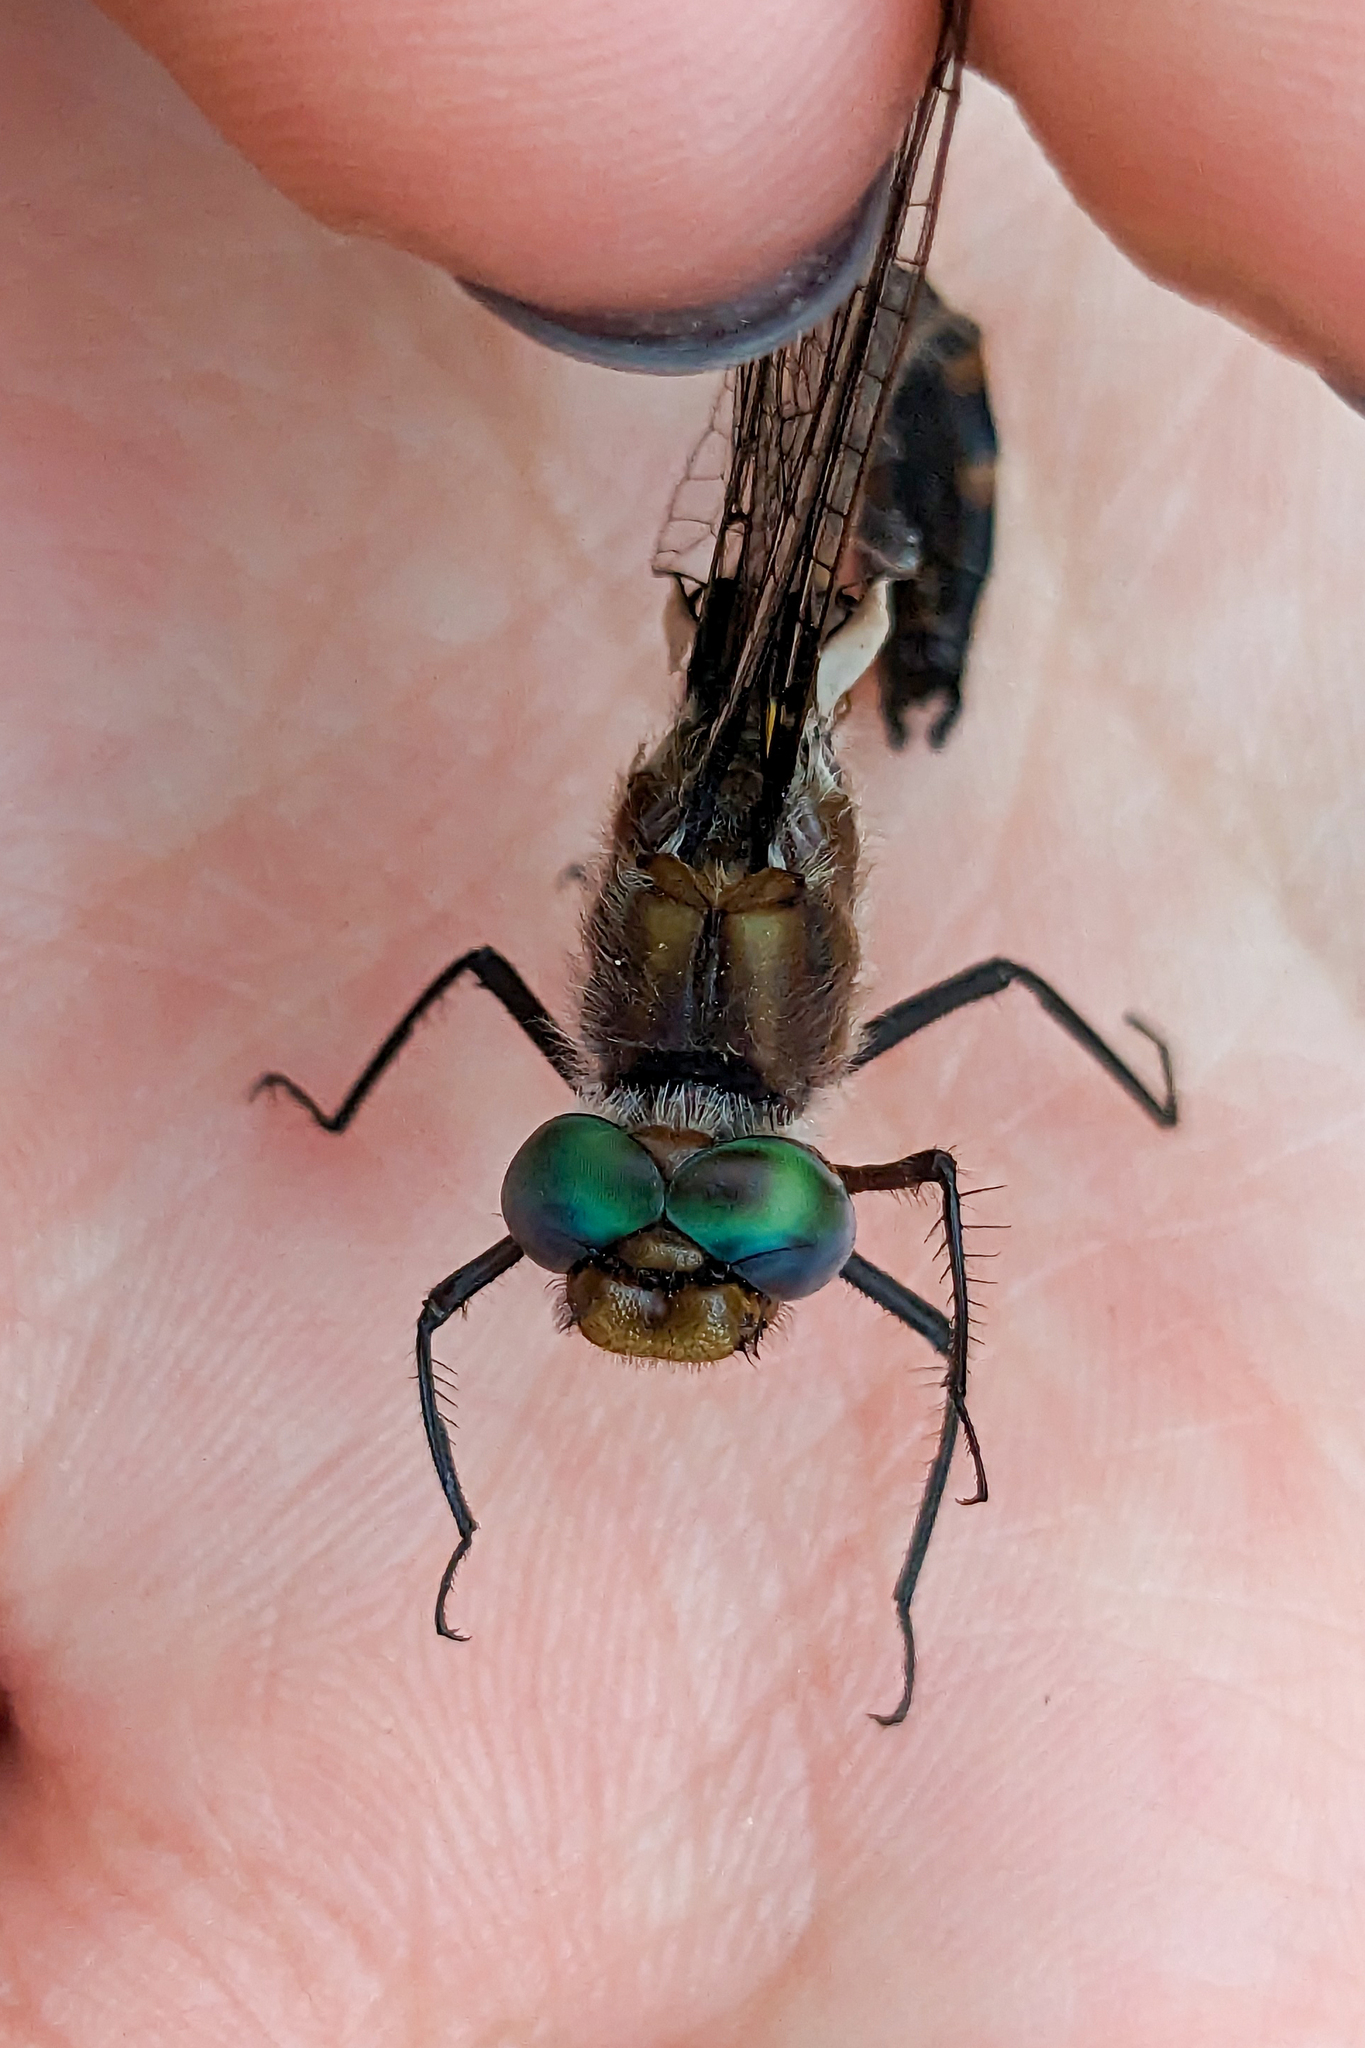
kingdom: Animalia
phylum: Arthropoda
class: Insecta
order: Odonata
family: Corduliidae
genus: Helocordulia
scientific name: Helocordulia uhleri
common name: Uhler's sundragon
